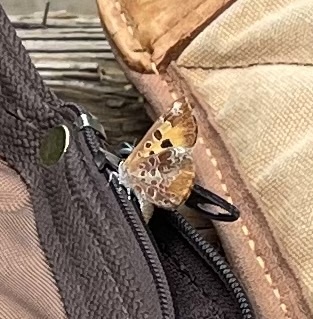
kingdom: Animalia
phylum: Arthropoda
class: Insecta
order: Lepidoptera
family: Lycaenidae
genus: Feniseca
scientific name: Feniseca tarquinius
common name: Harvester
